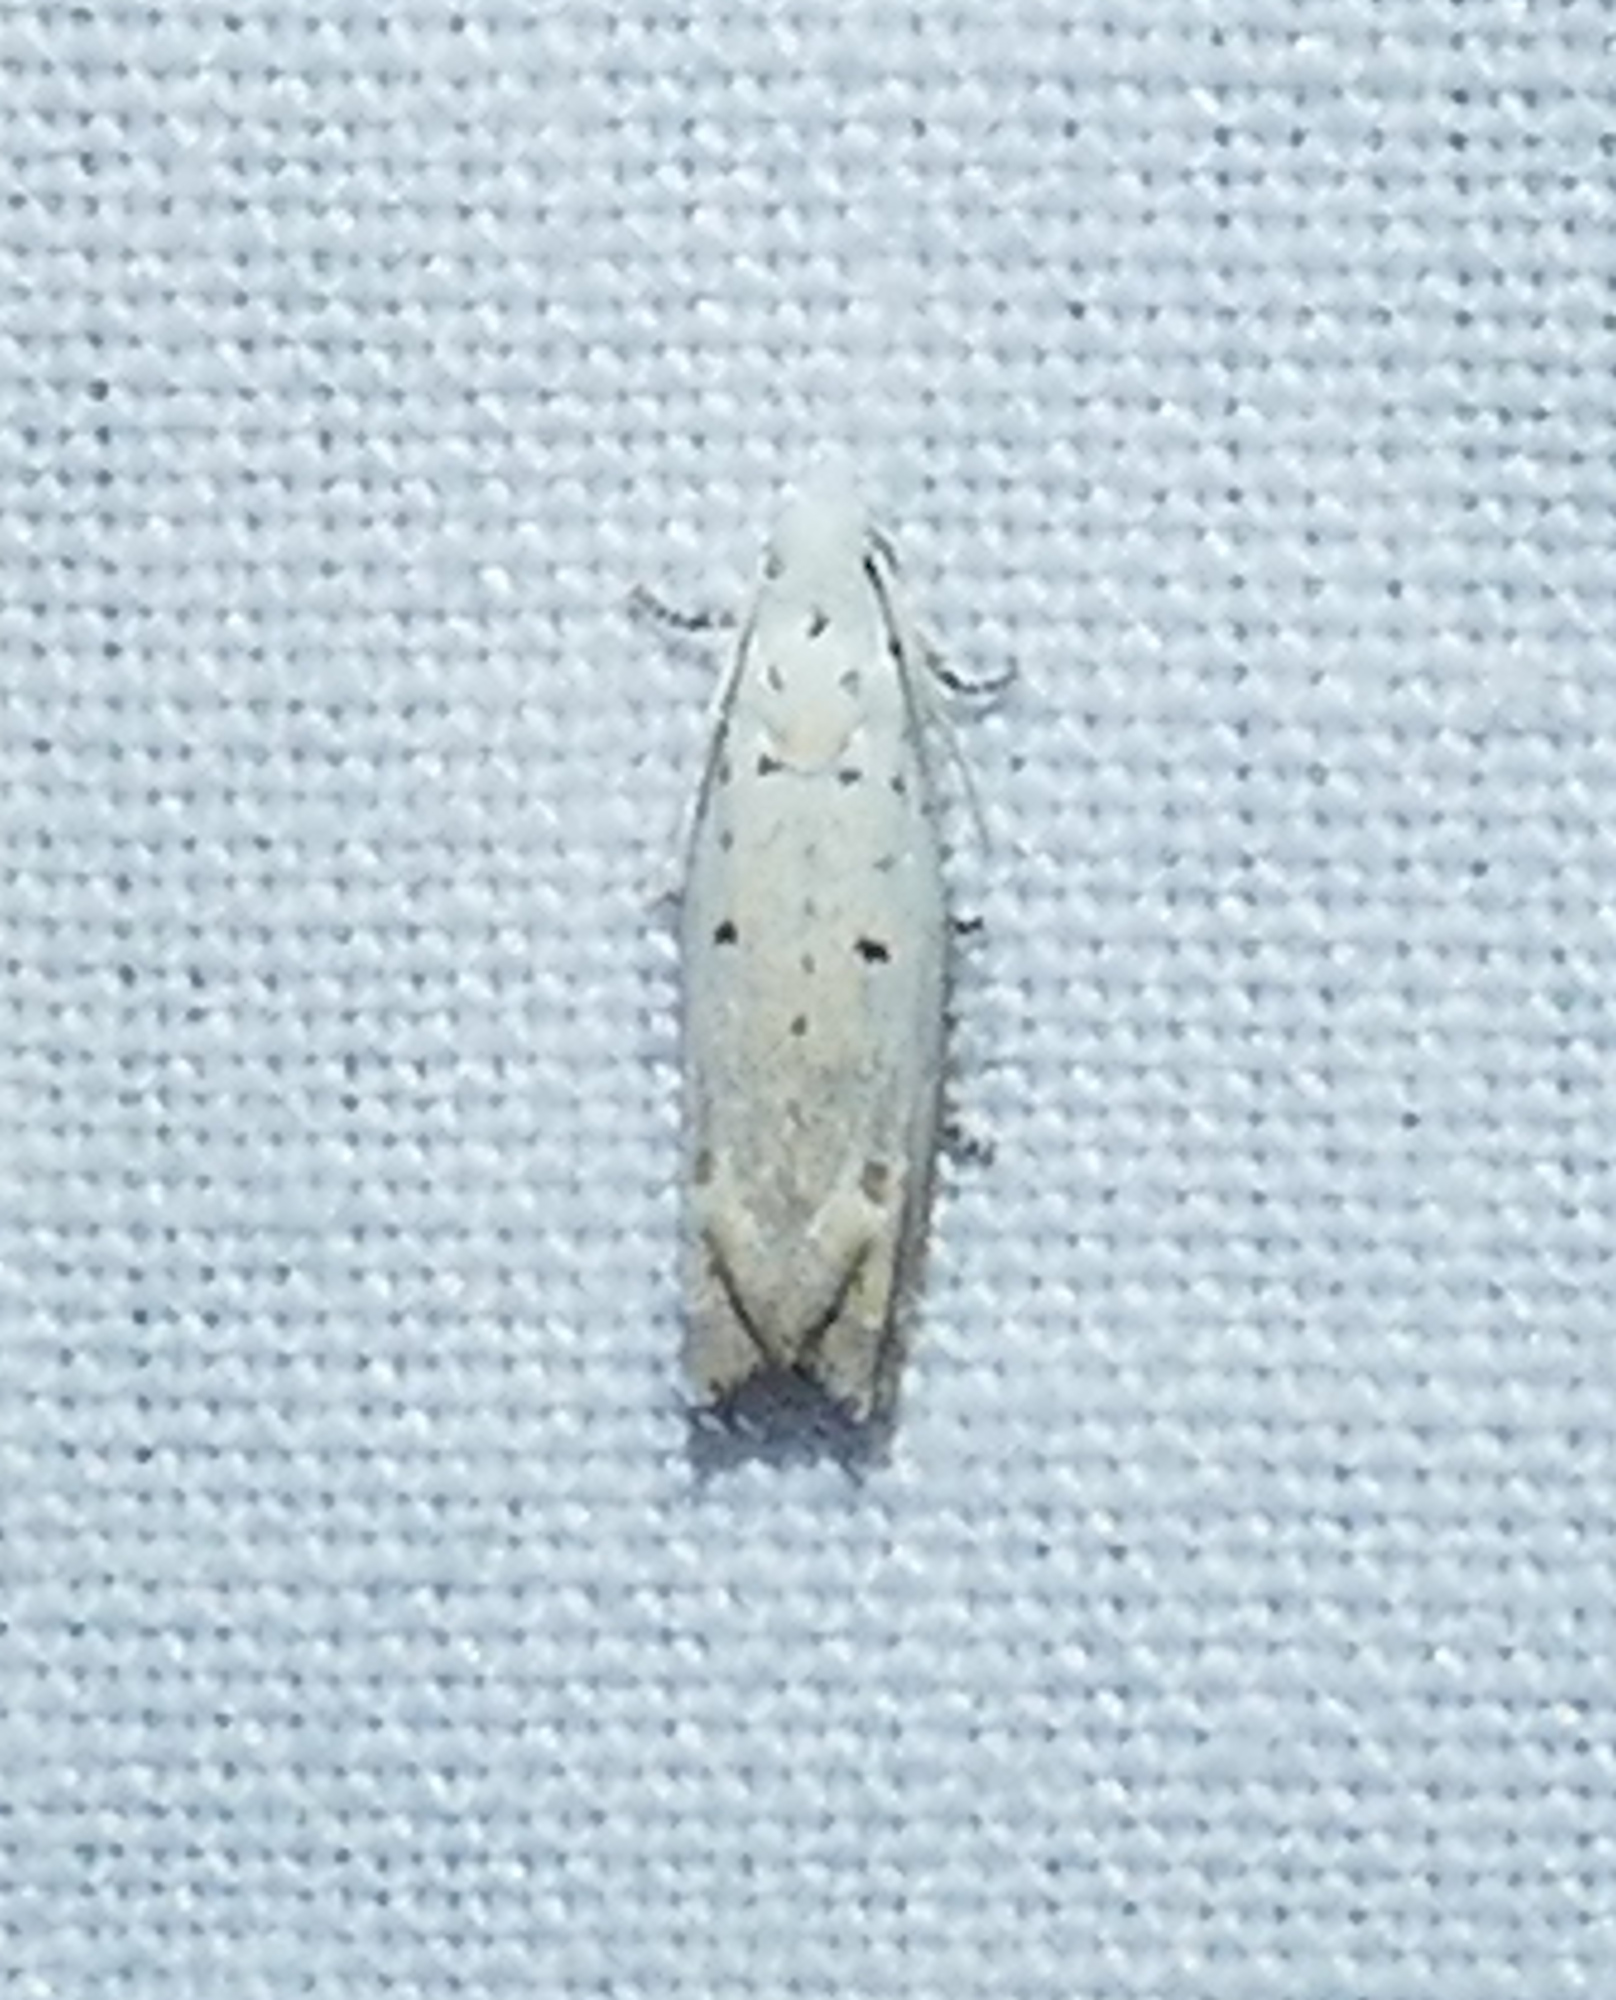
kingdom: Animalia
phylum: Arthropoda
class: Insecta
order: Lepidoptera
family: Tortricidae
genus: Epiblema
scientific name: Epiblema separationis
